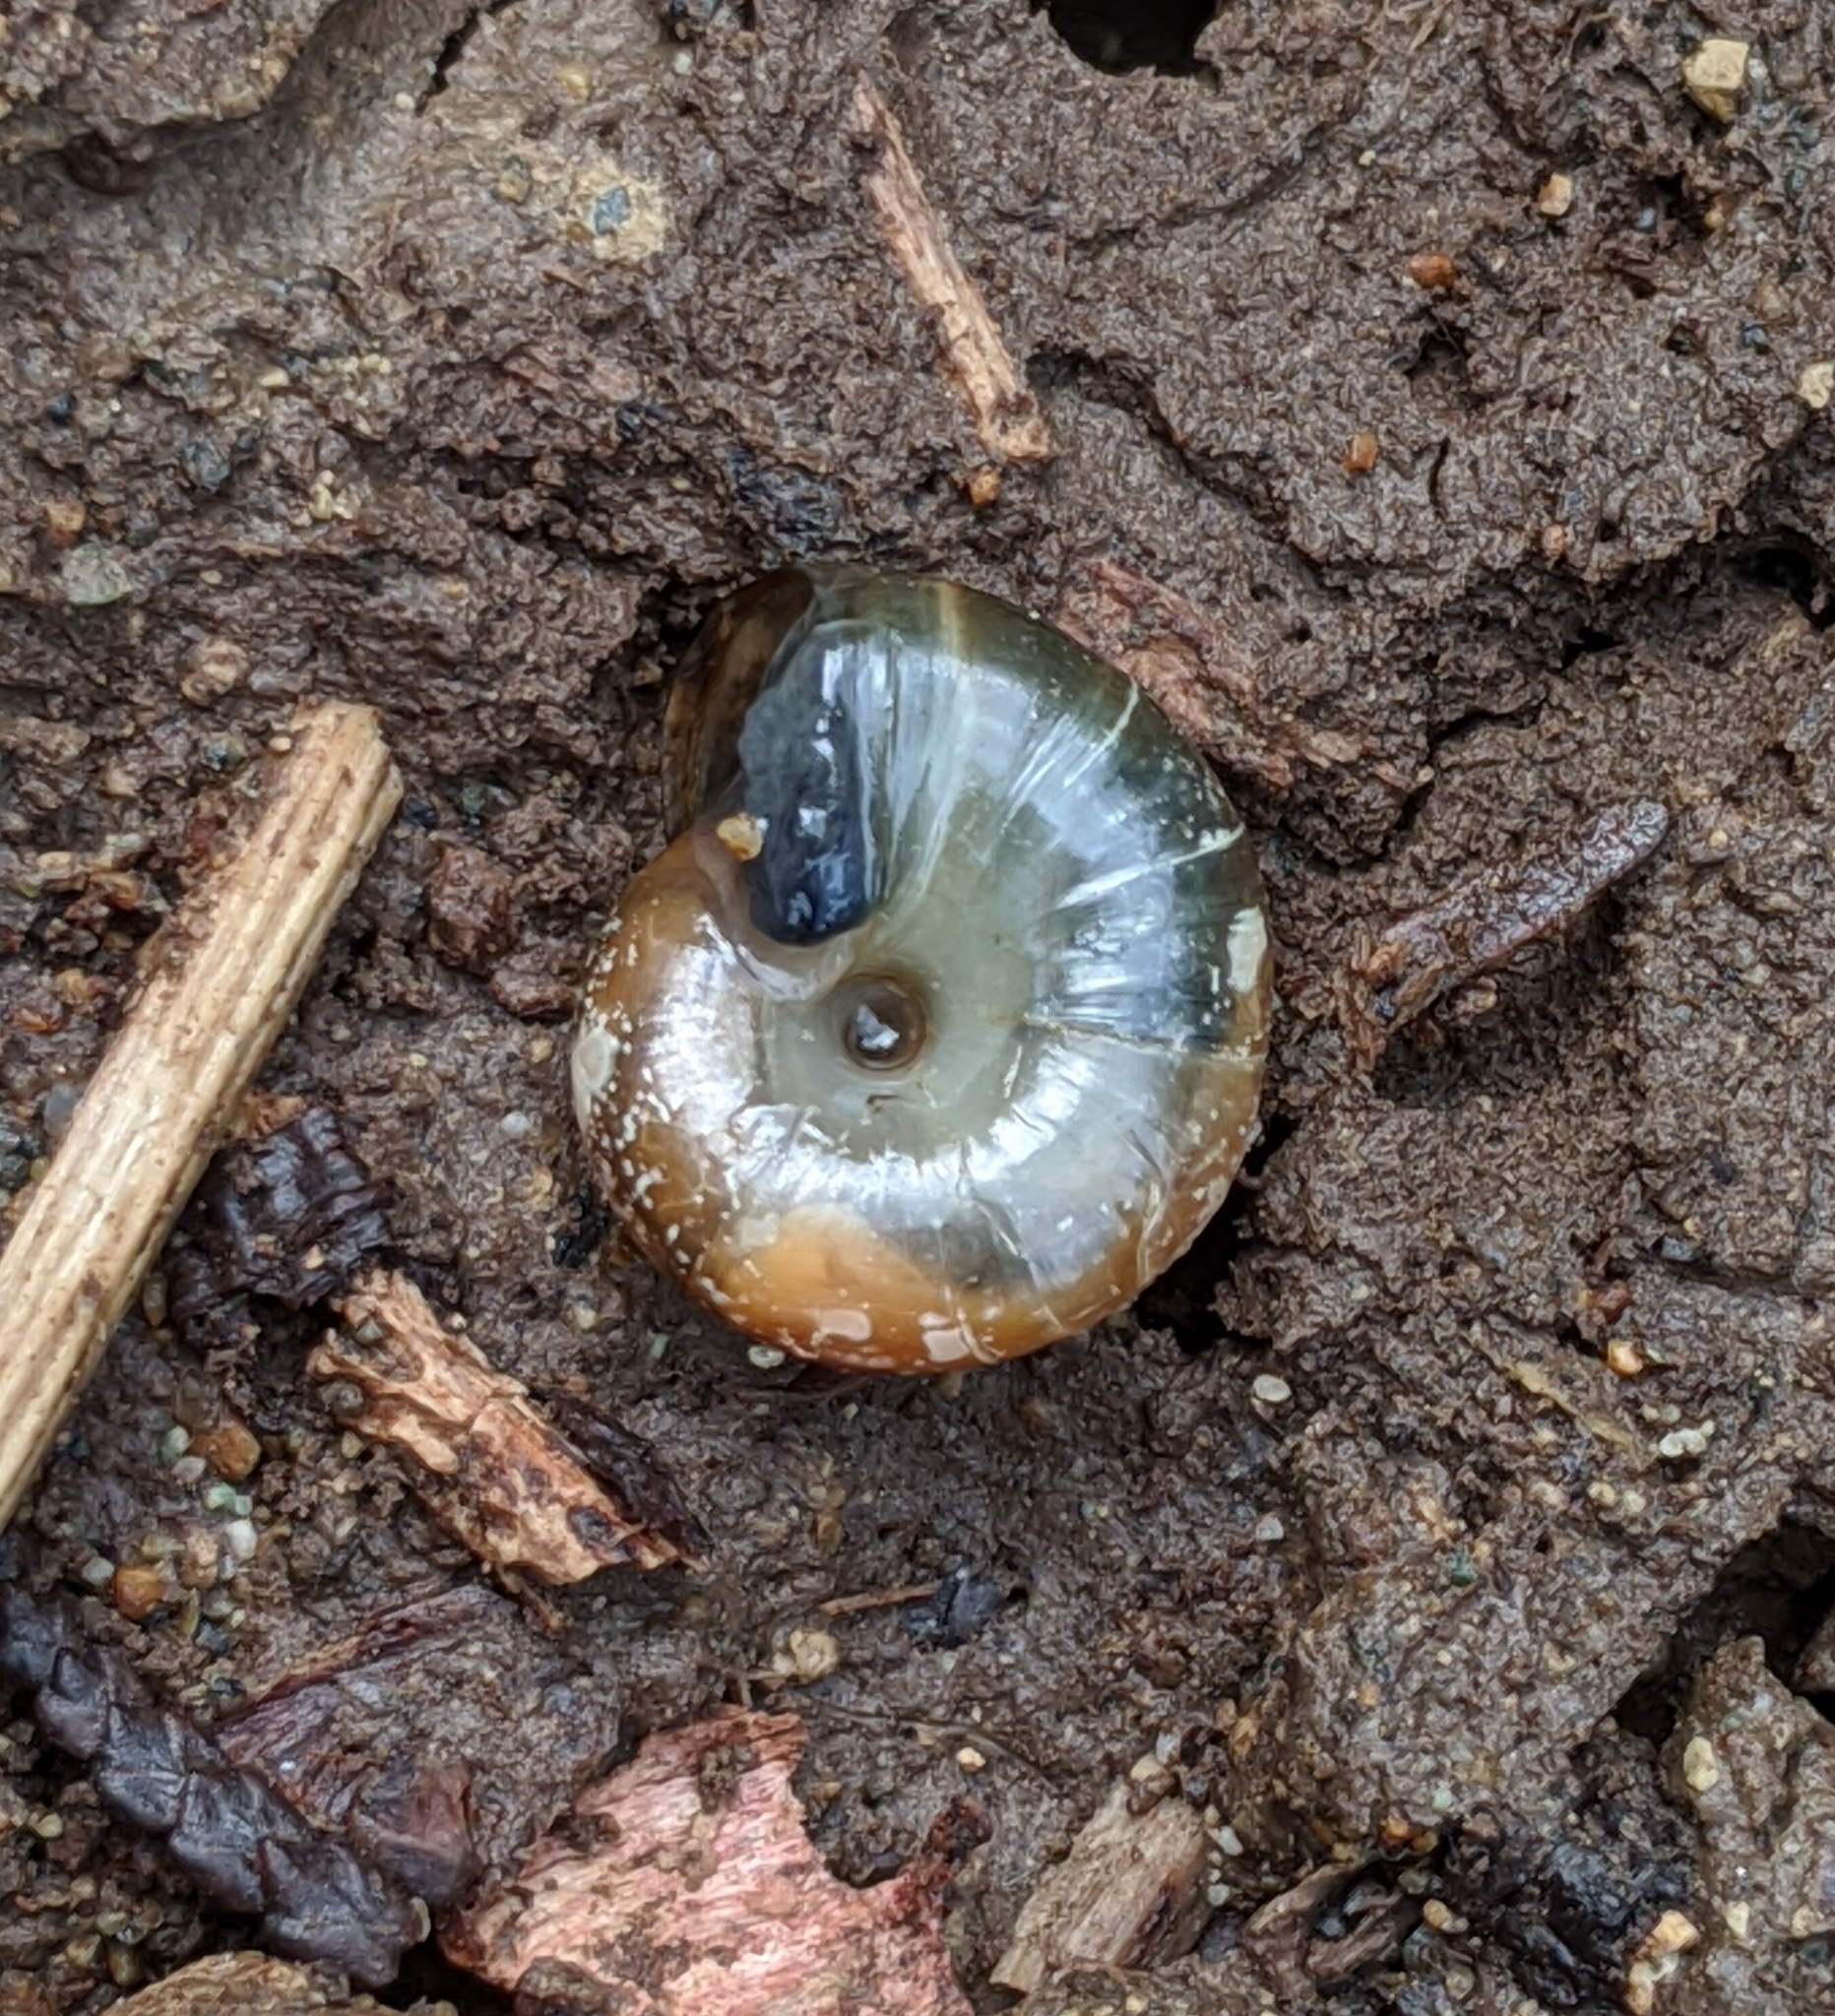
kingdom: Animalia
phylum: Mollusca
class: Gastropoda
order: Stylommatophora
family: Oxychilidae
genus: Oxychilus
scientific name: Oxychilus draparnaudi
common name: Draparnaud's glass snail
